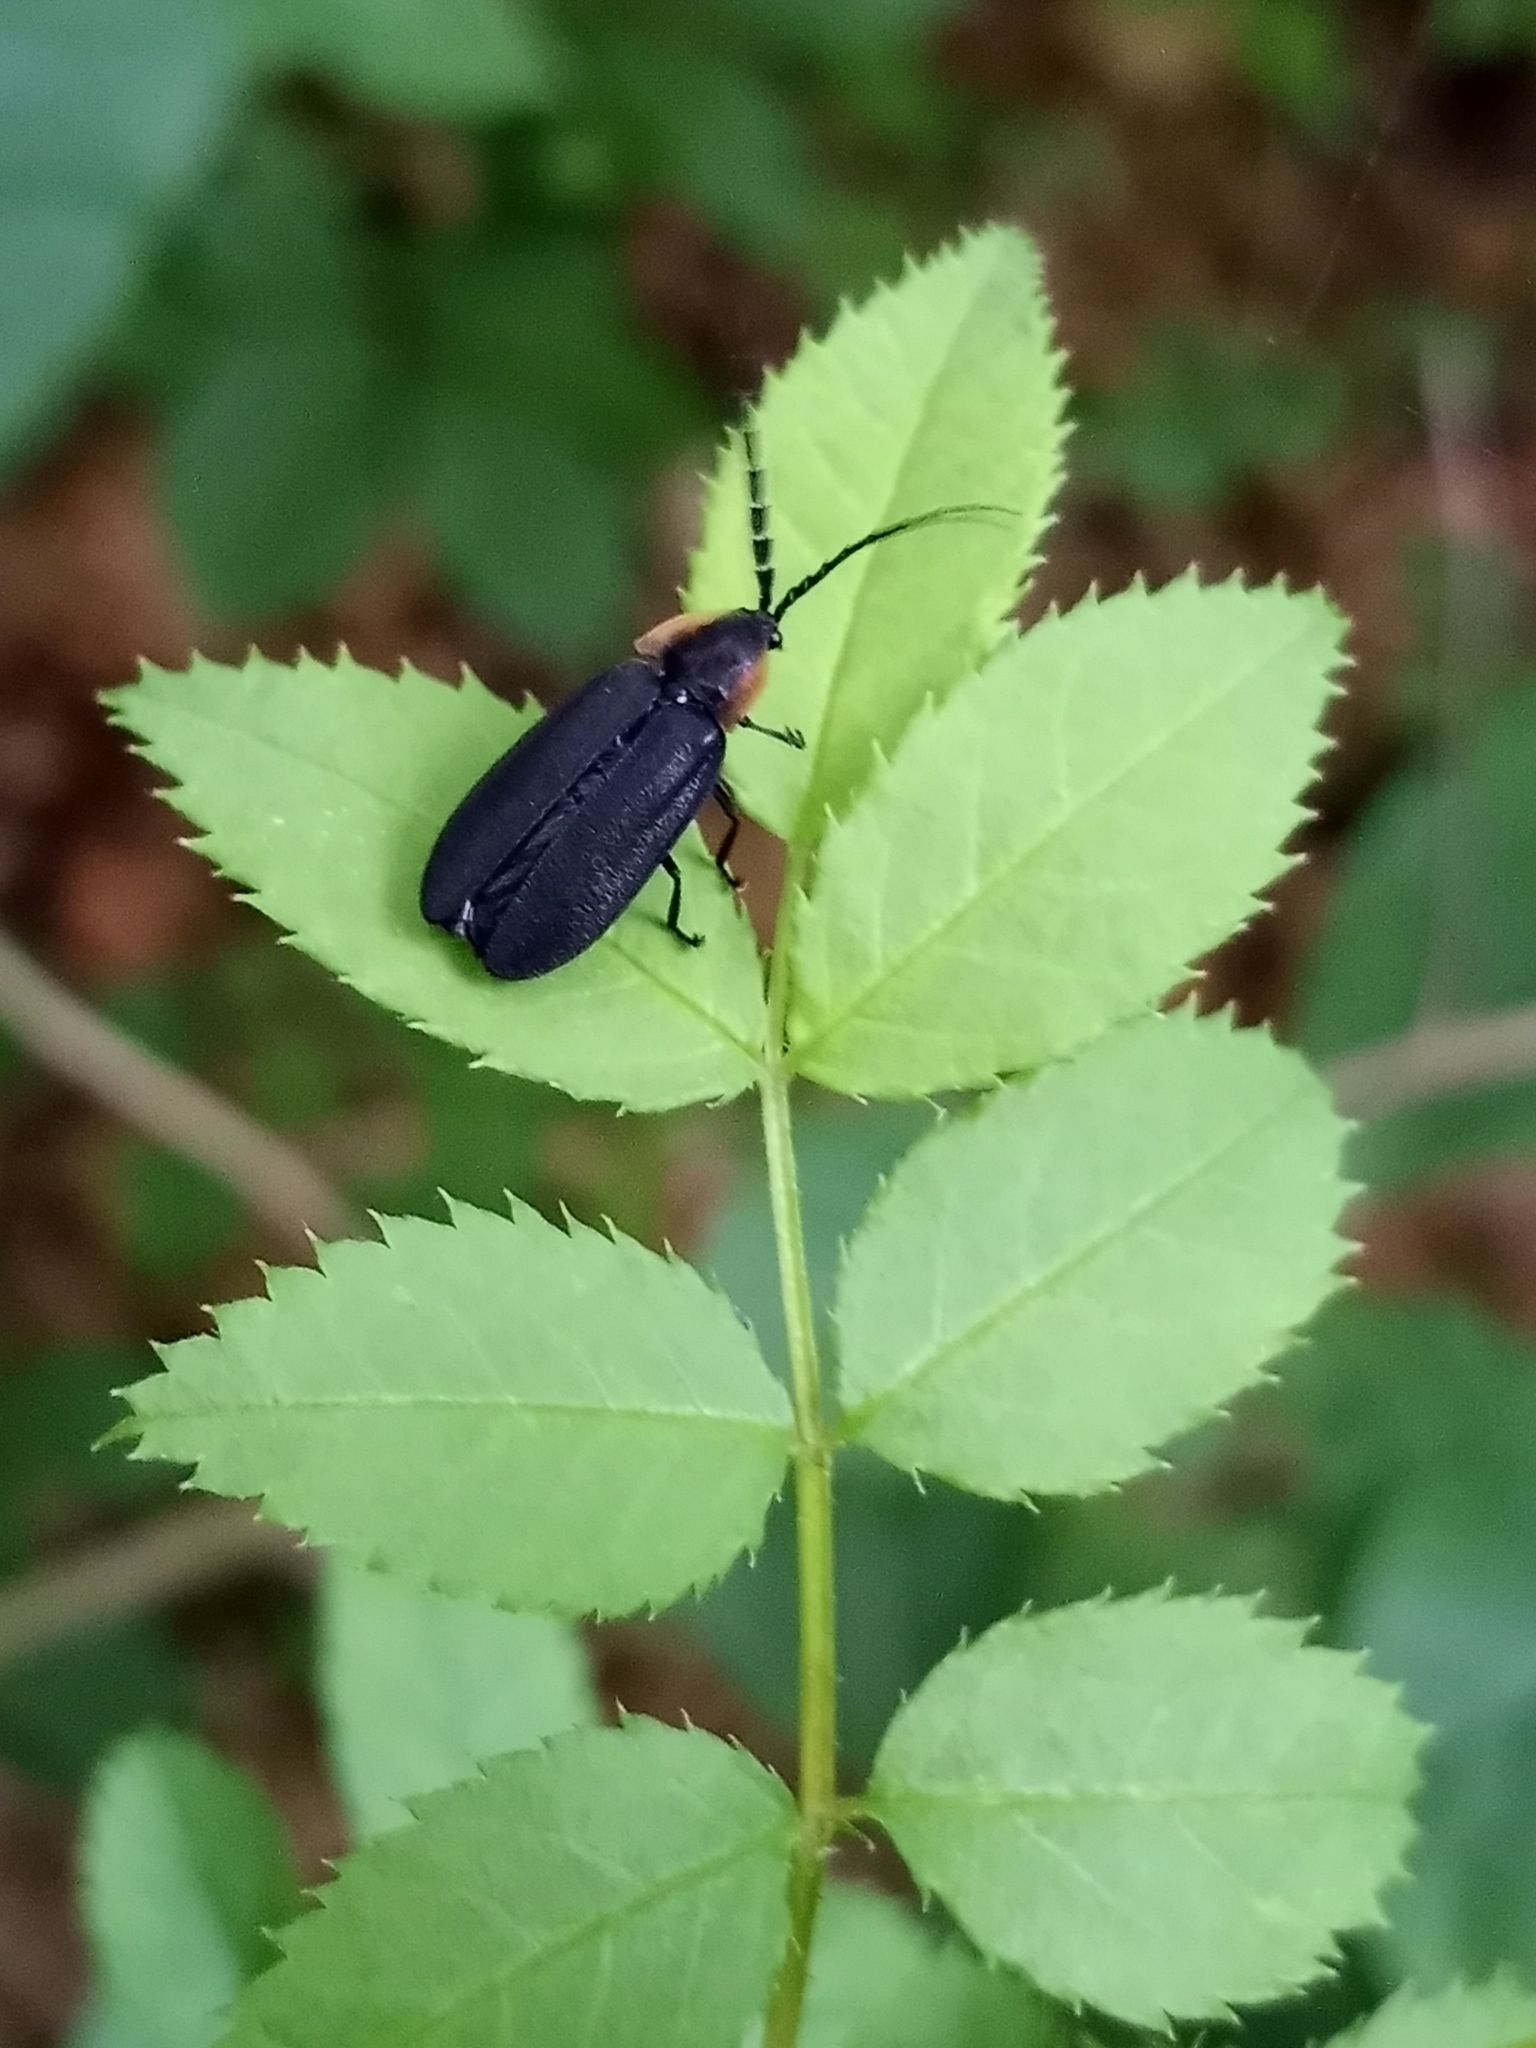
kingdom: Animalia
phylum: Arthropoda
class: Insecta
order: Coleoptera
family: Lampyridae
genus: Lucidota
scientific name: Lucidota atra
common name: Black firefly
